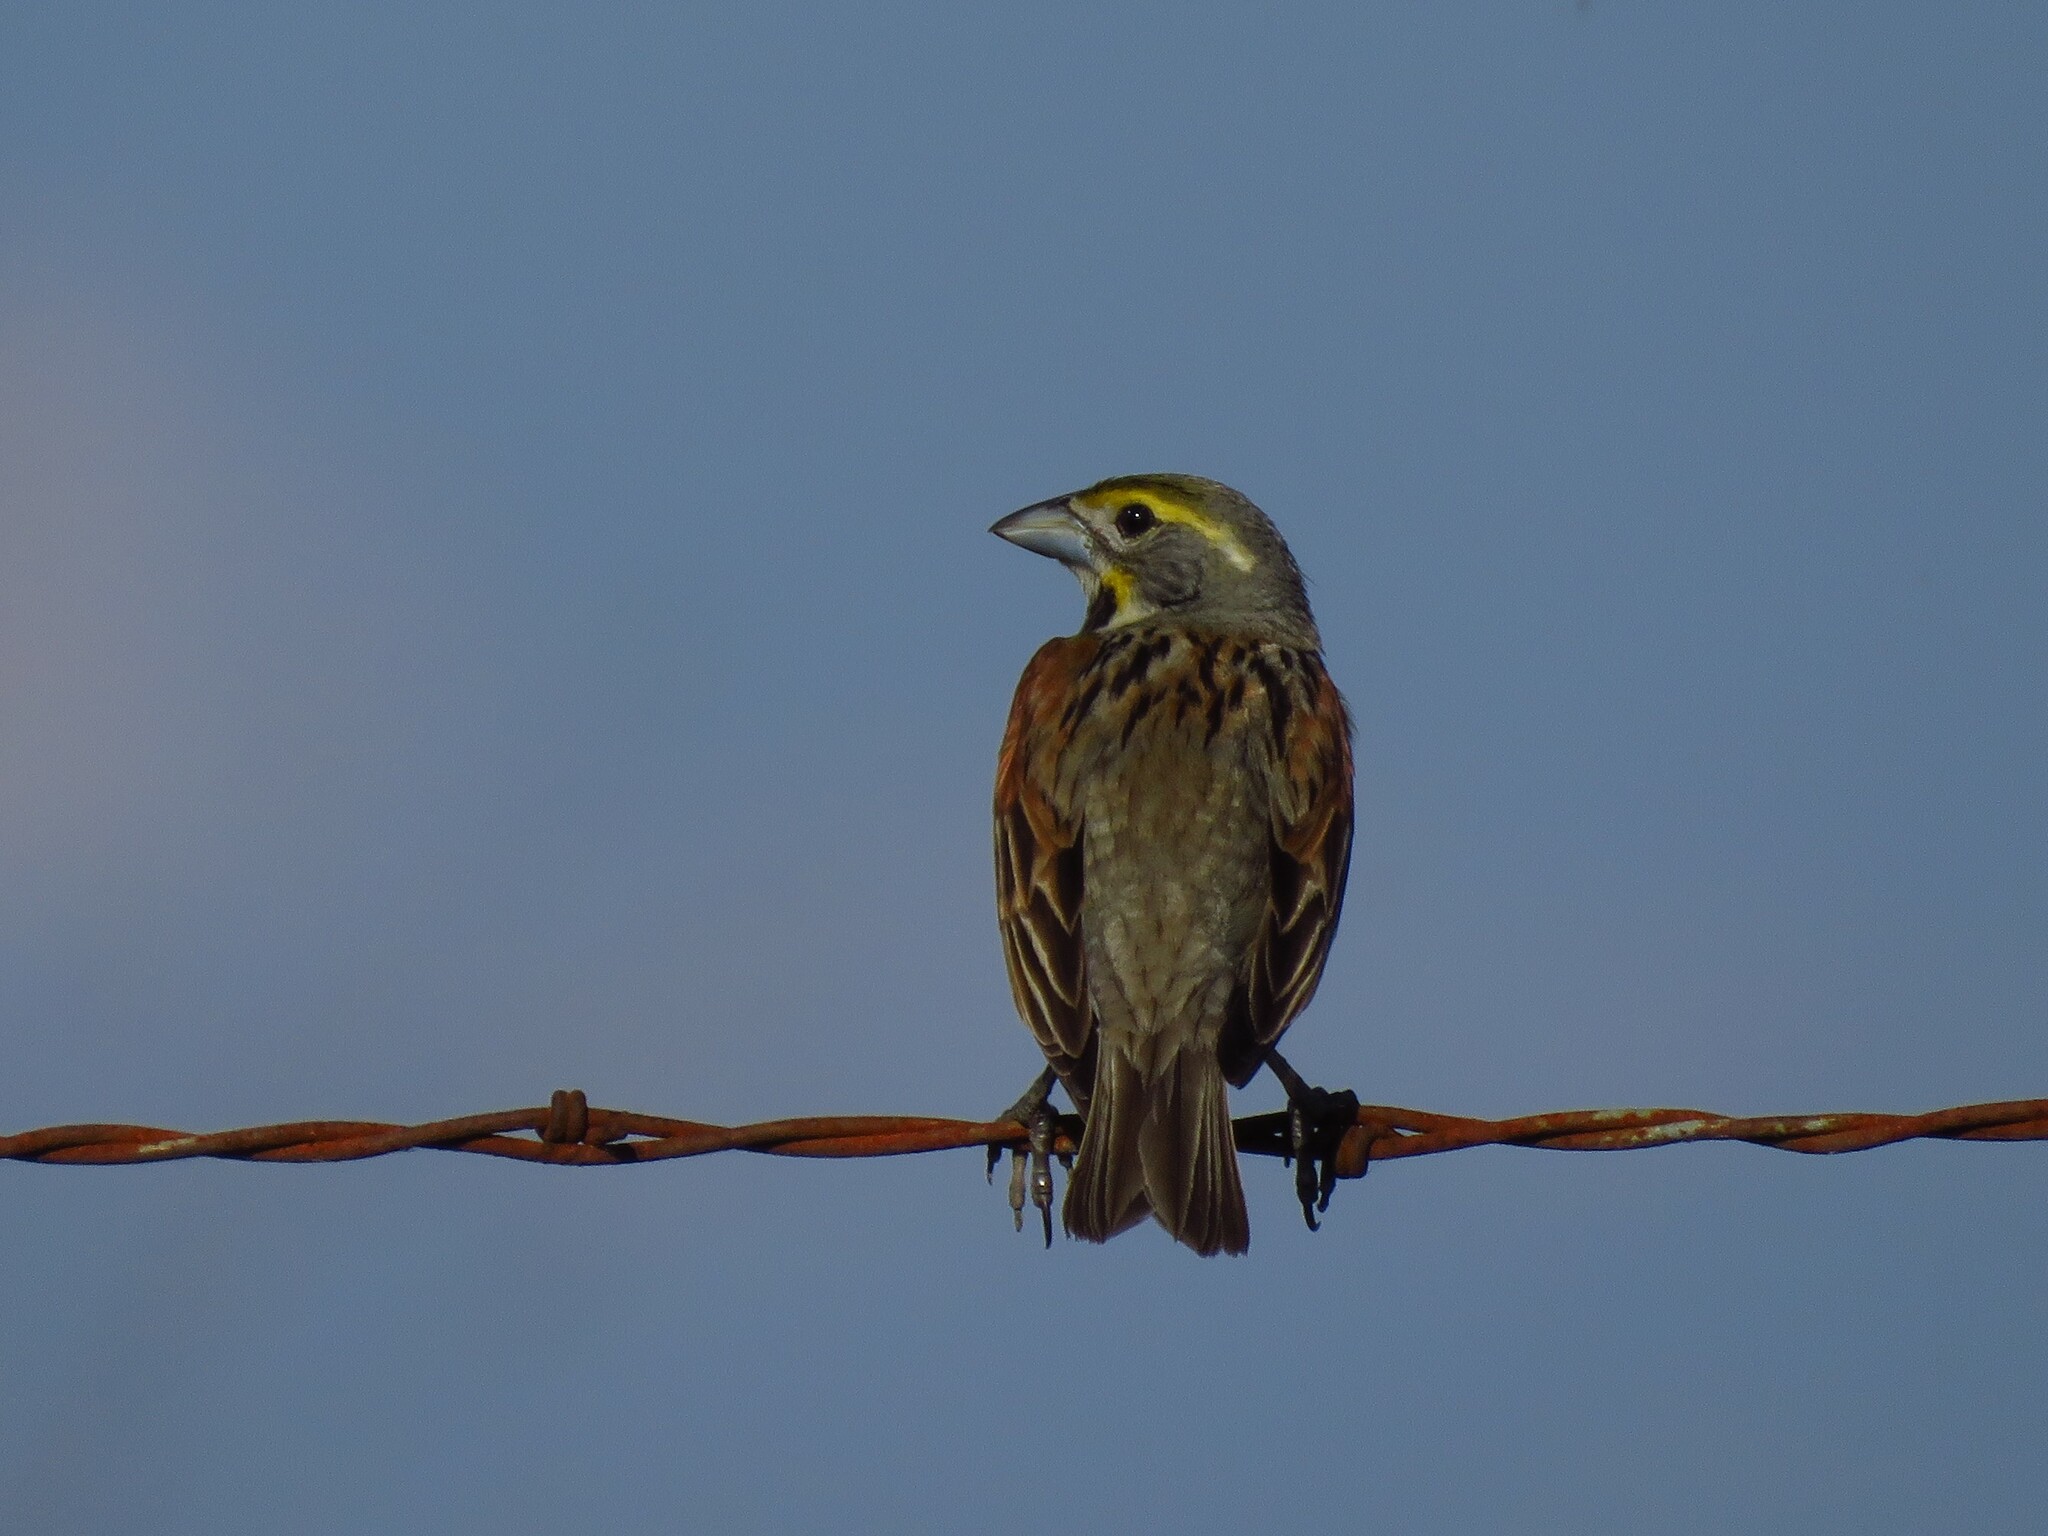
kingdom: Animalia
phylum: Chordata
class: Aves
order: Passeriformes
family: Cardinalidae
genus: Spiza
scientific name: Spiza americana
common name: Dickcissel
